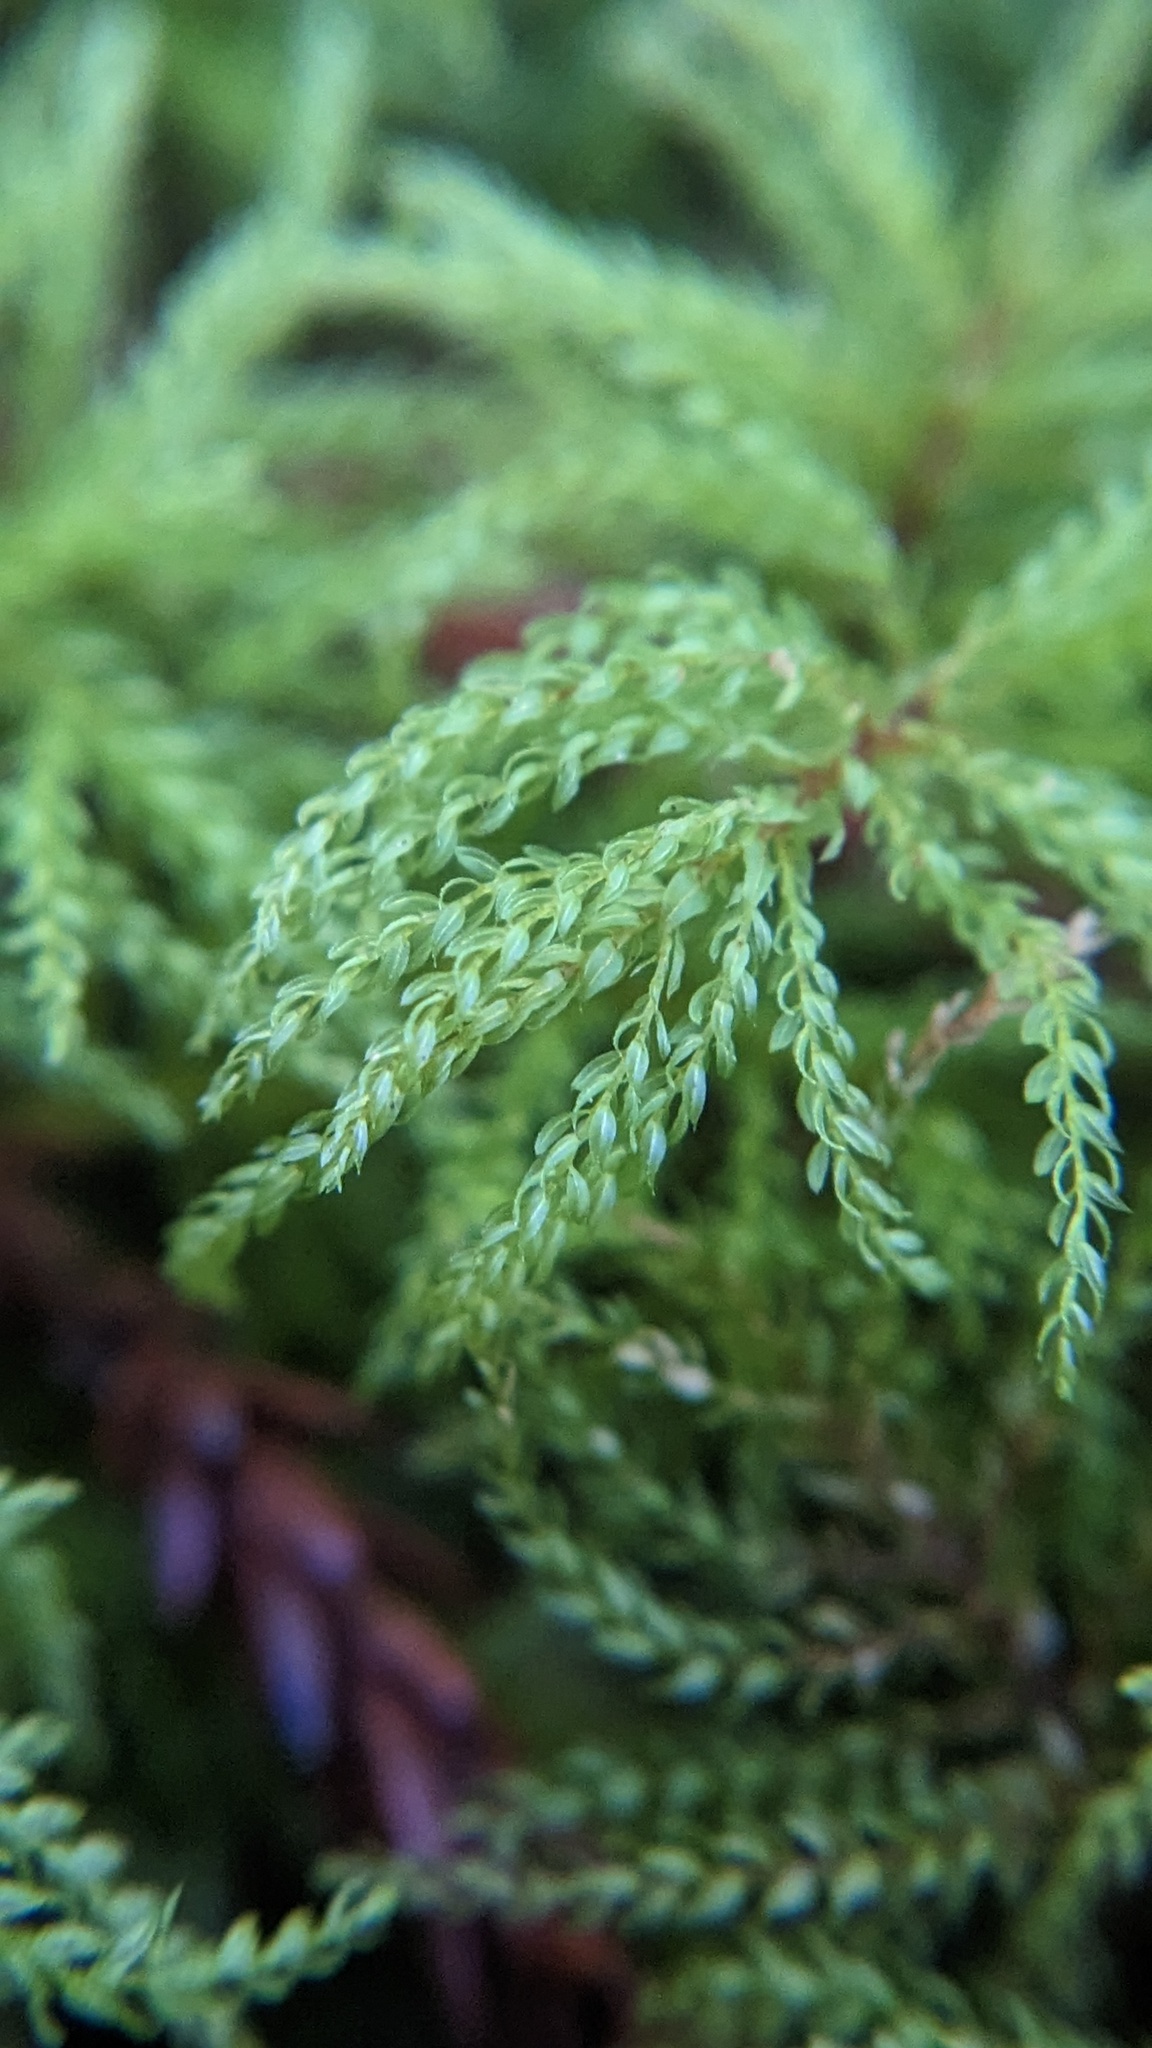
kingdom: Plantae
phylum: Bryophyta
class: Bryopsida
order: Bryales
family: Mniaceae
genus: Leucolepis
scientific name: Leucolepis acanthoneura
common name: Leucolepis umbrella moss
